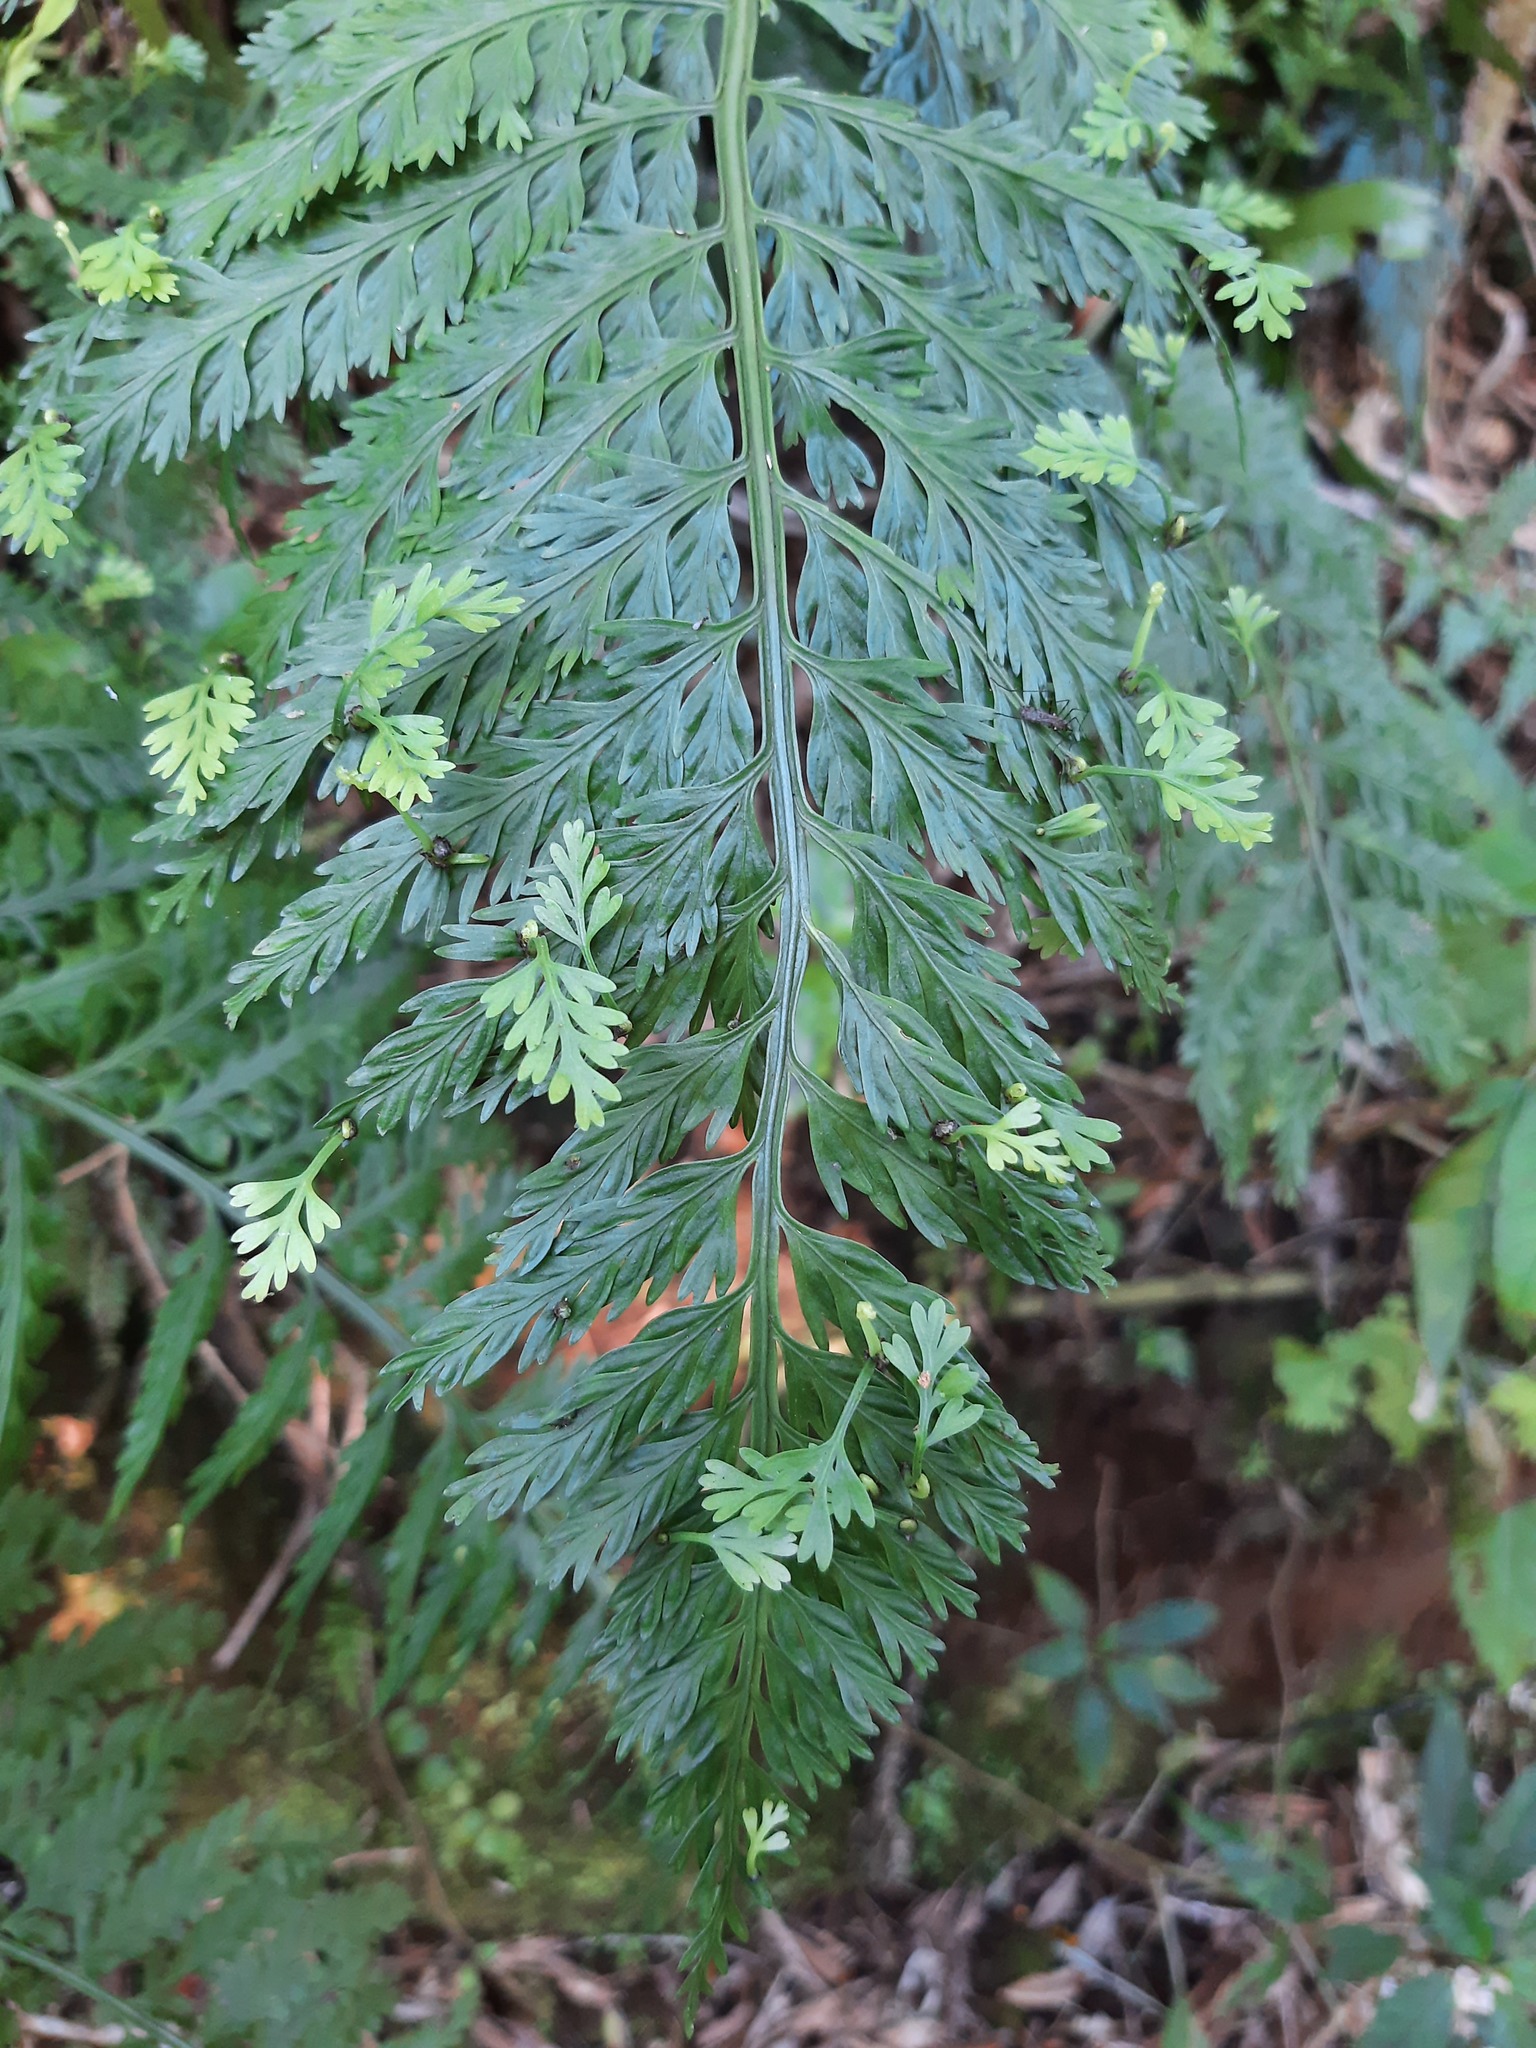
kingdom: Plantae
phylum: Tracheophyta
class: Polypodiopsida
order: Polypodiales
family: Aspleniaceae
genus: Asplenium
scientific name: Asplenium bulbiferum
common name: Mother fern
